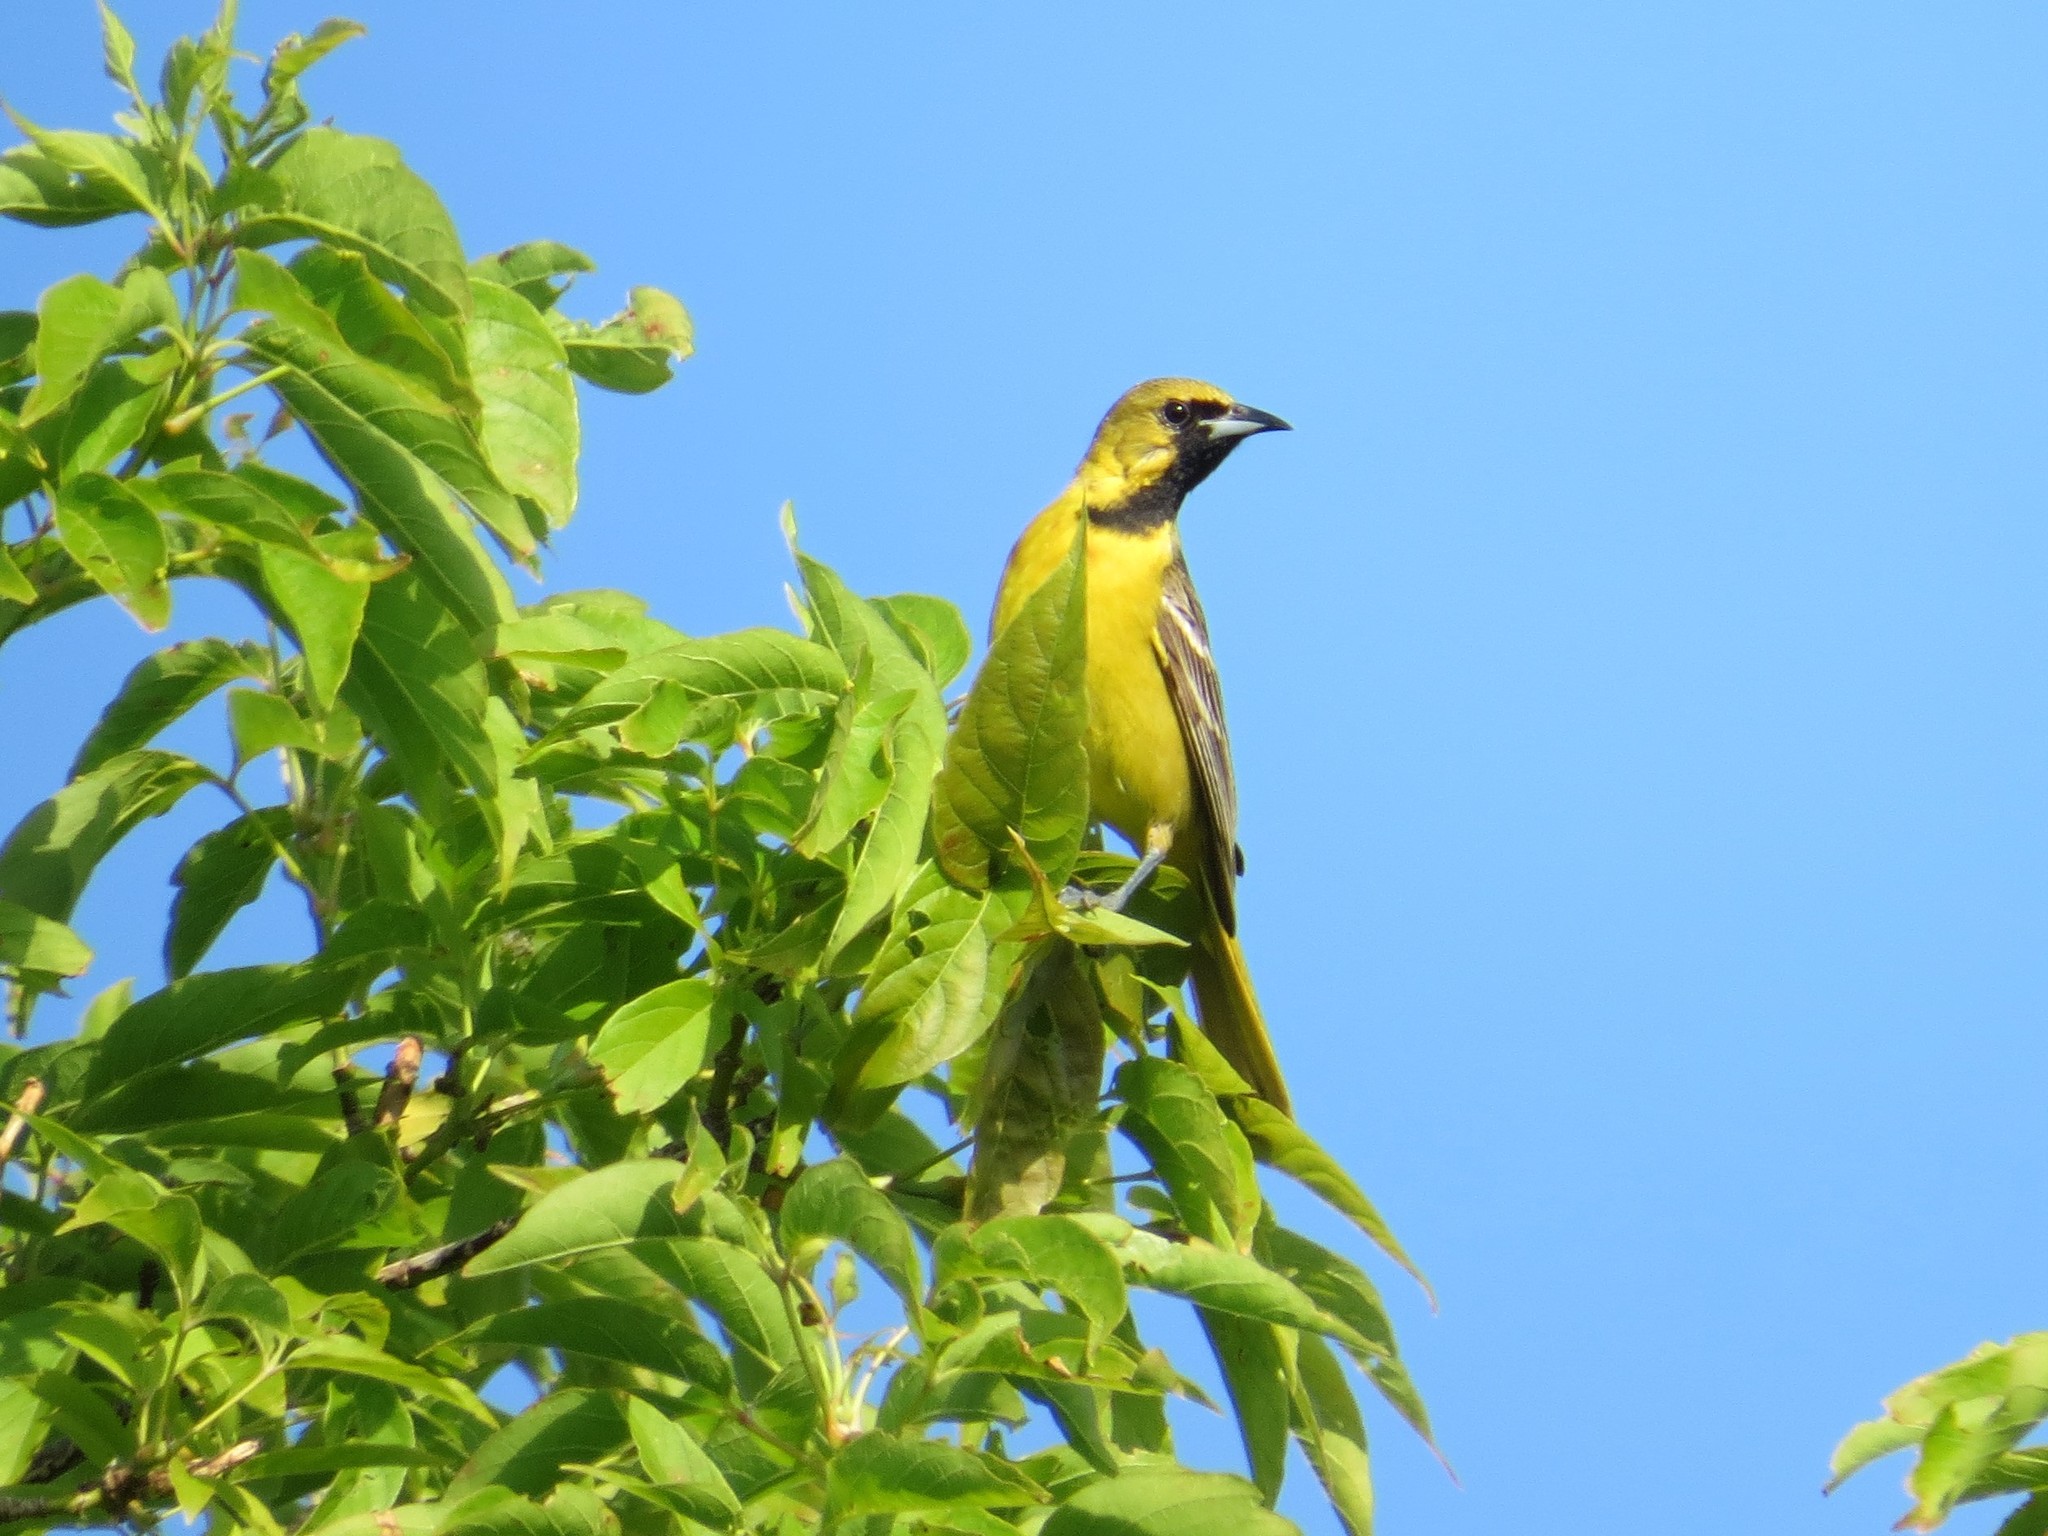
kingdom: Animalia
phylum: Chordata
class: Aves
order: Passeriformes
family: Icteridae
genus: Icterus
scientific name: Icterus spurius
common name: Orchard oriole
